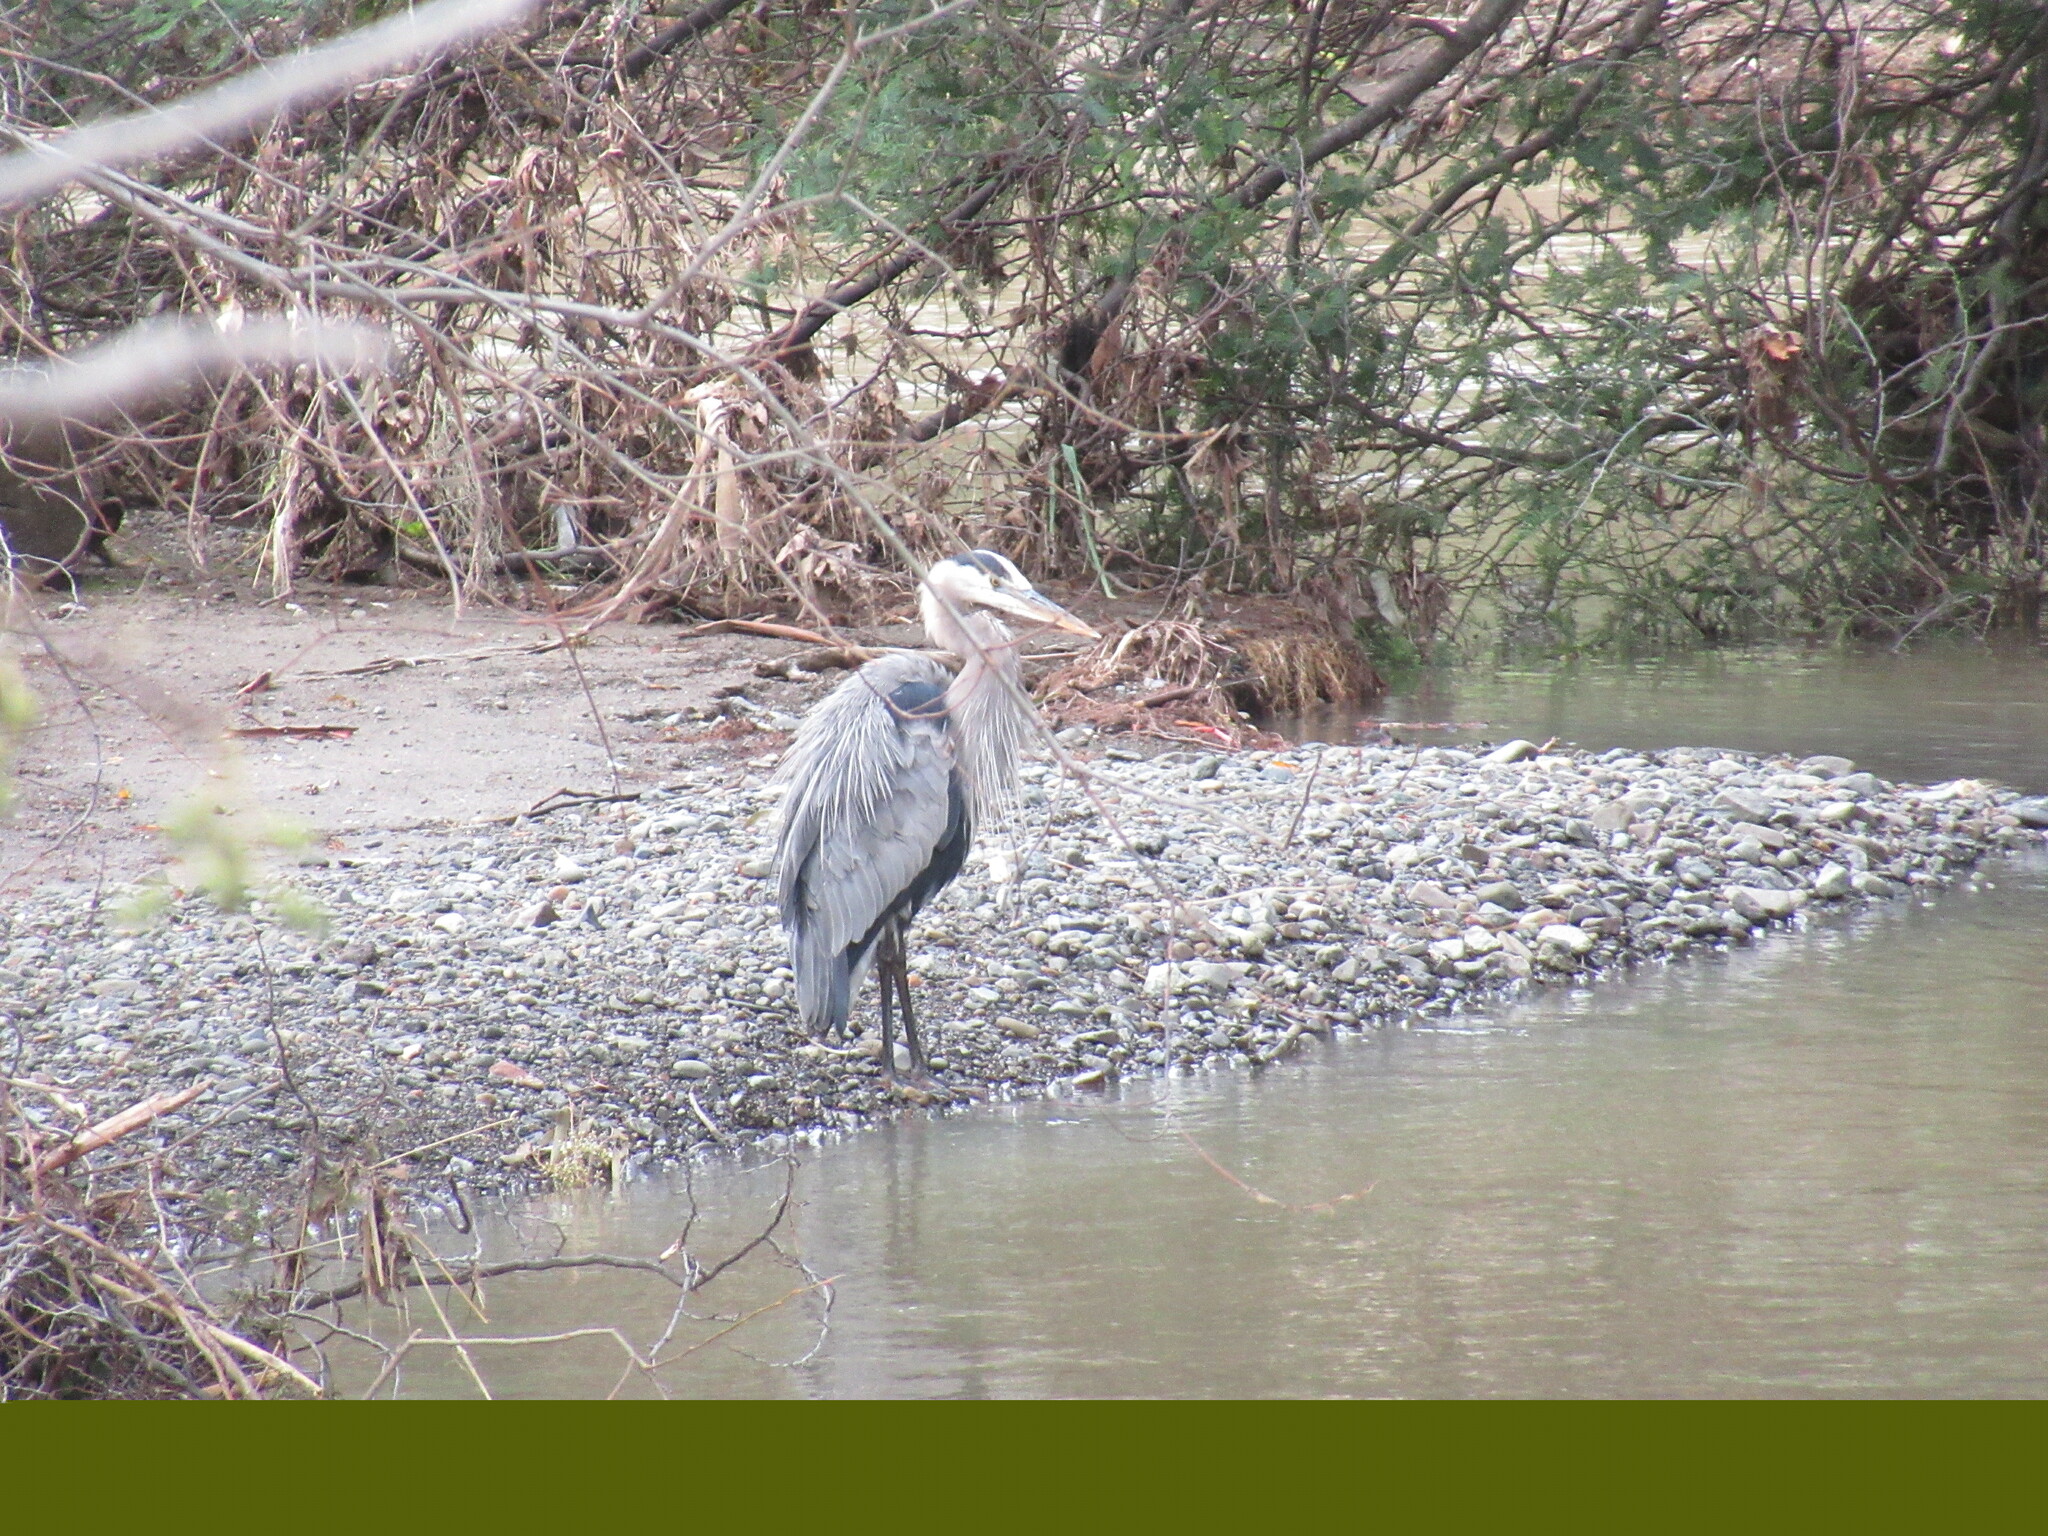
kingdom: Animalia
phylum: Chordata
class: Aves
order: Pelecaniformes
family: Ardeidae
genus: Ardea
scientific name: Ardea herodias
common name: Great blue heron
